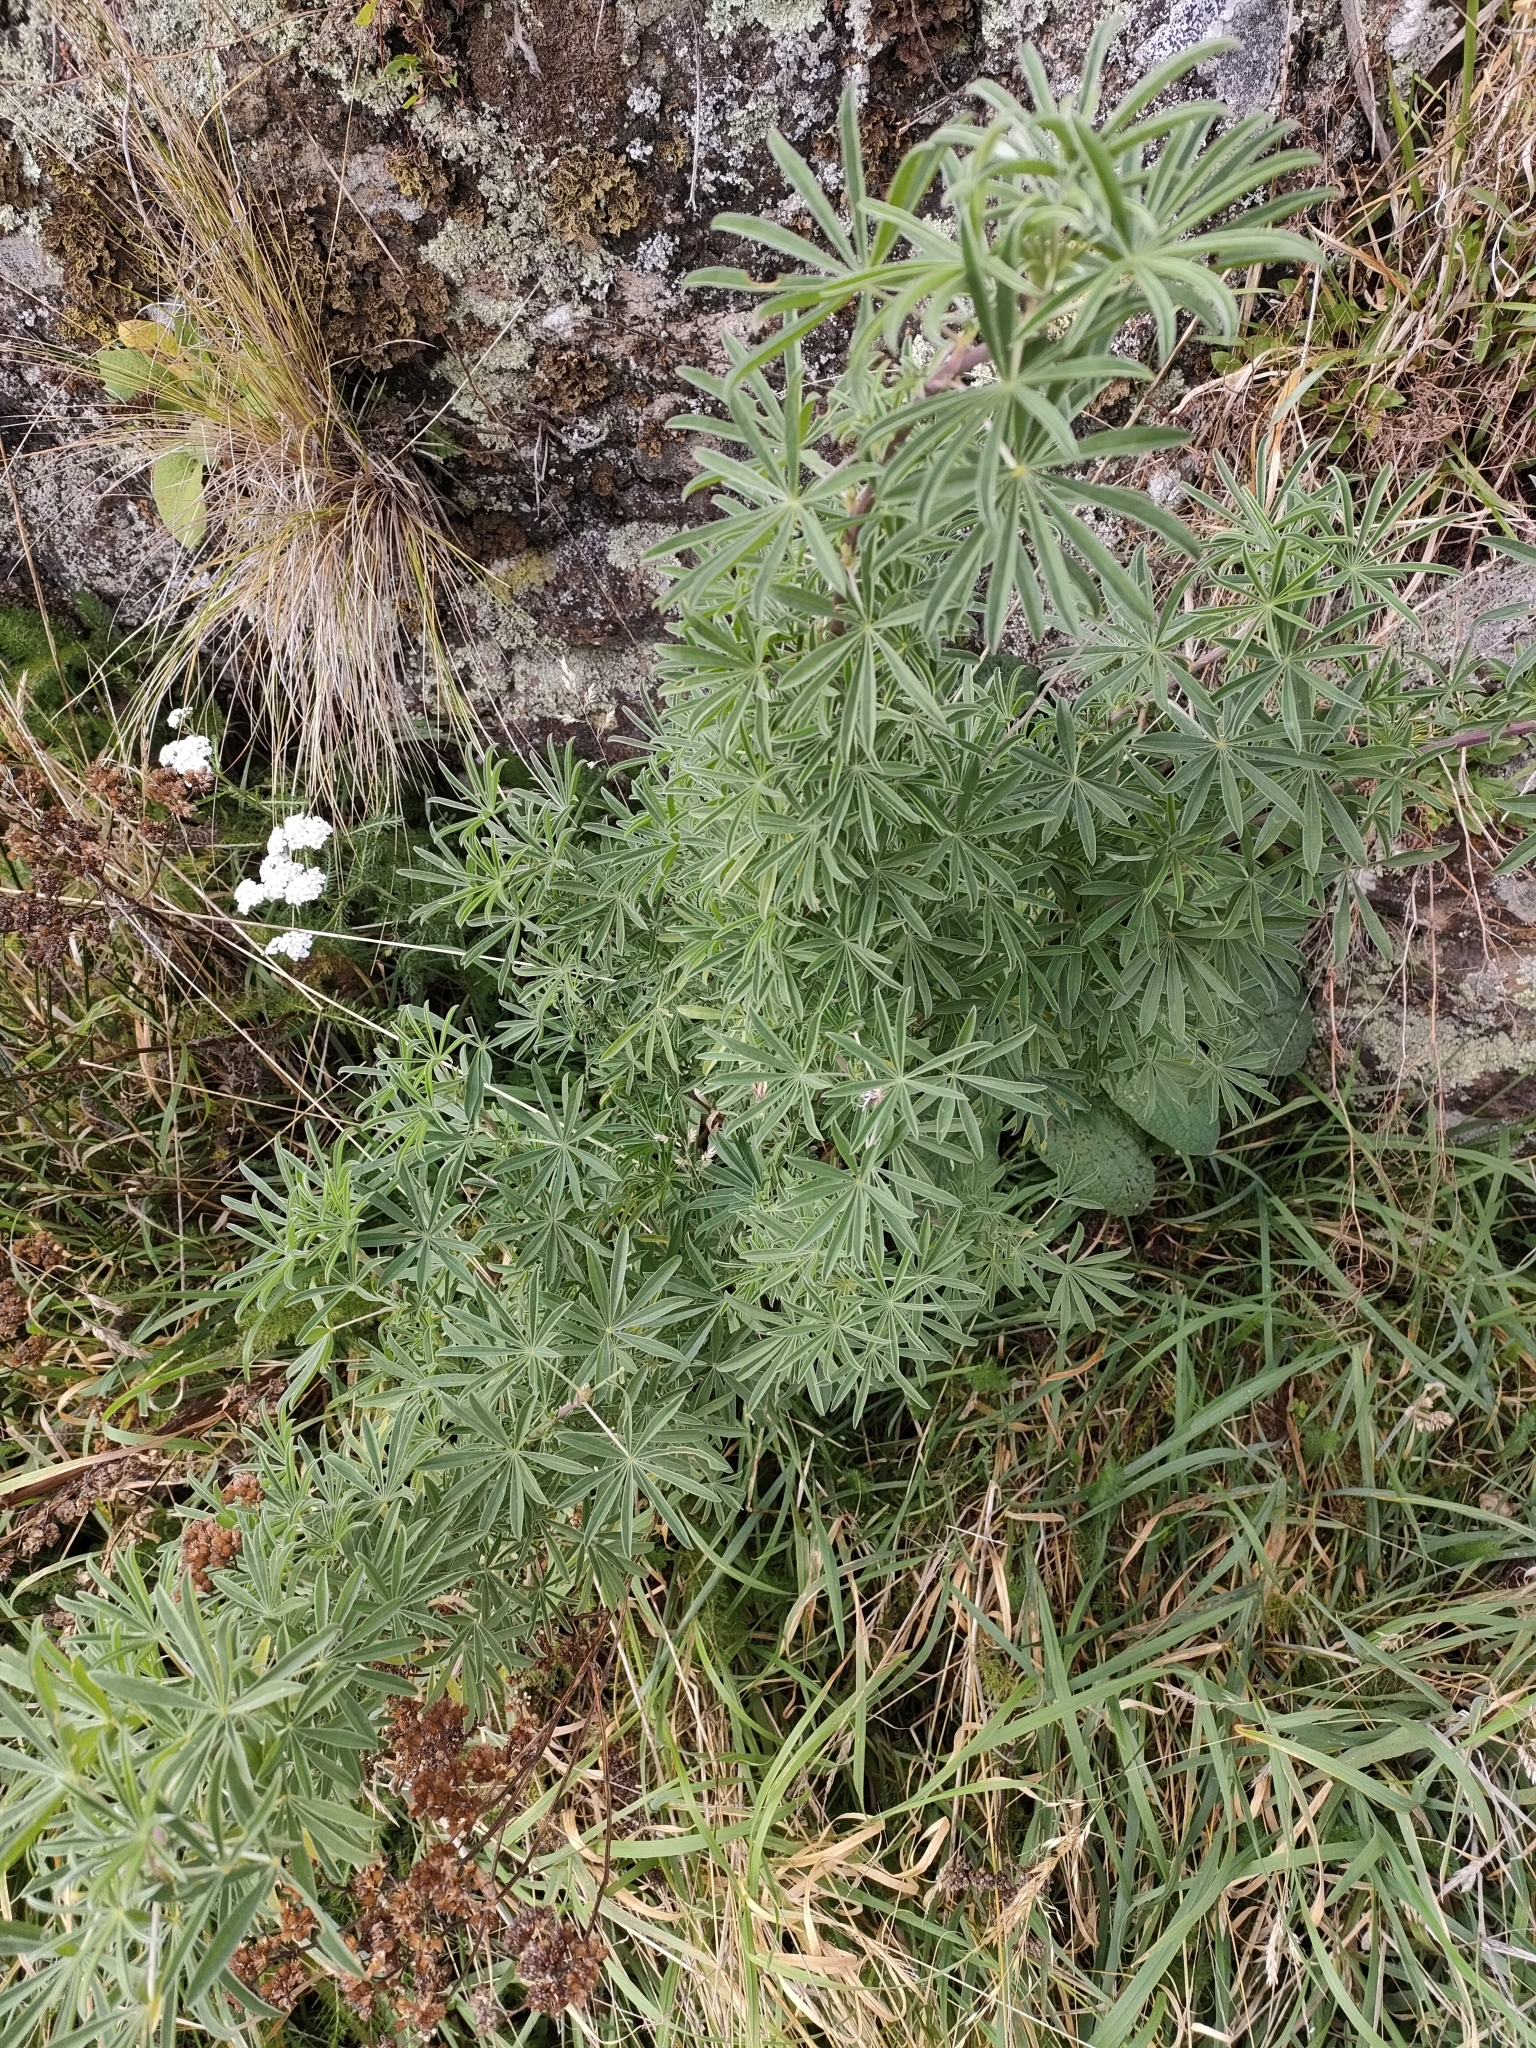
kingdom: Plantae
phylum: Tracheophyta
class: Magnoliopsida
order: Fabales
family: Fabaceae
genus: Lupinus
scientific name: Lupinus arboreus
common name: Yellow bush lupine
